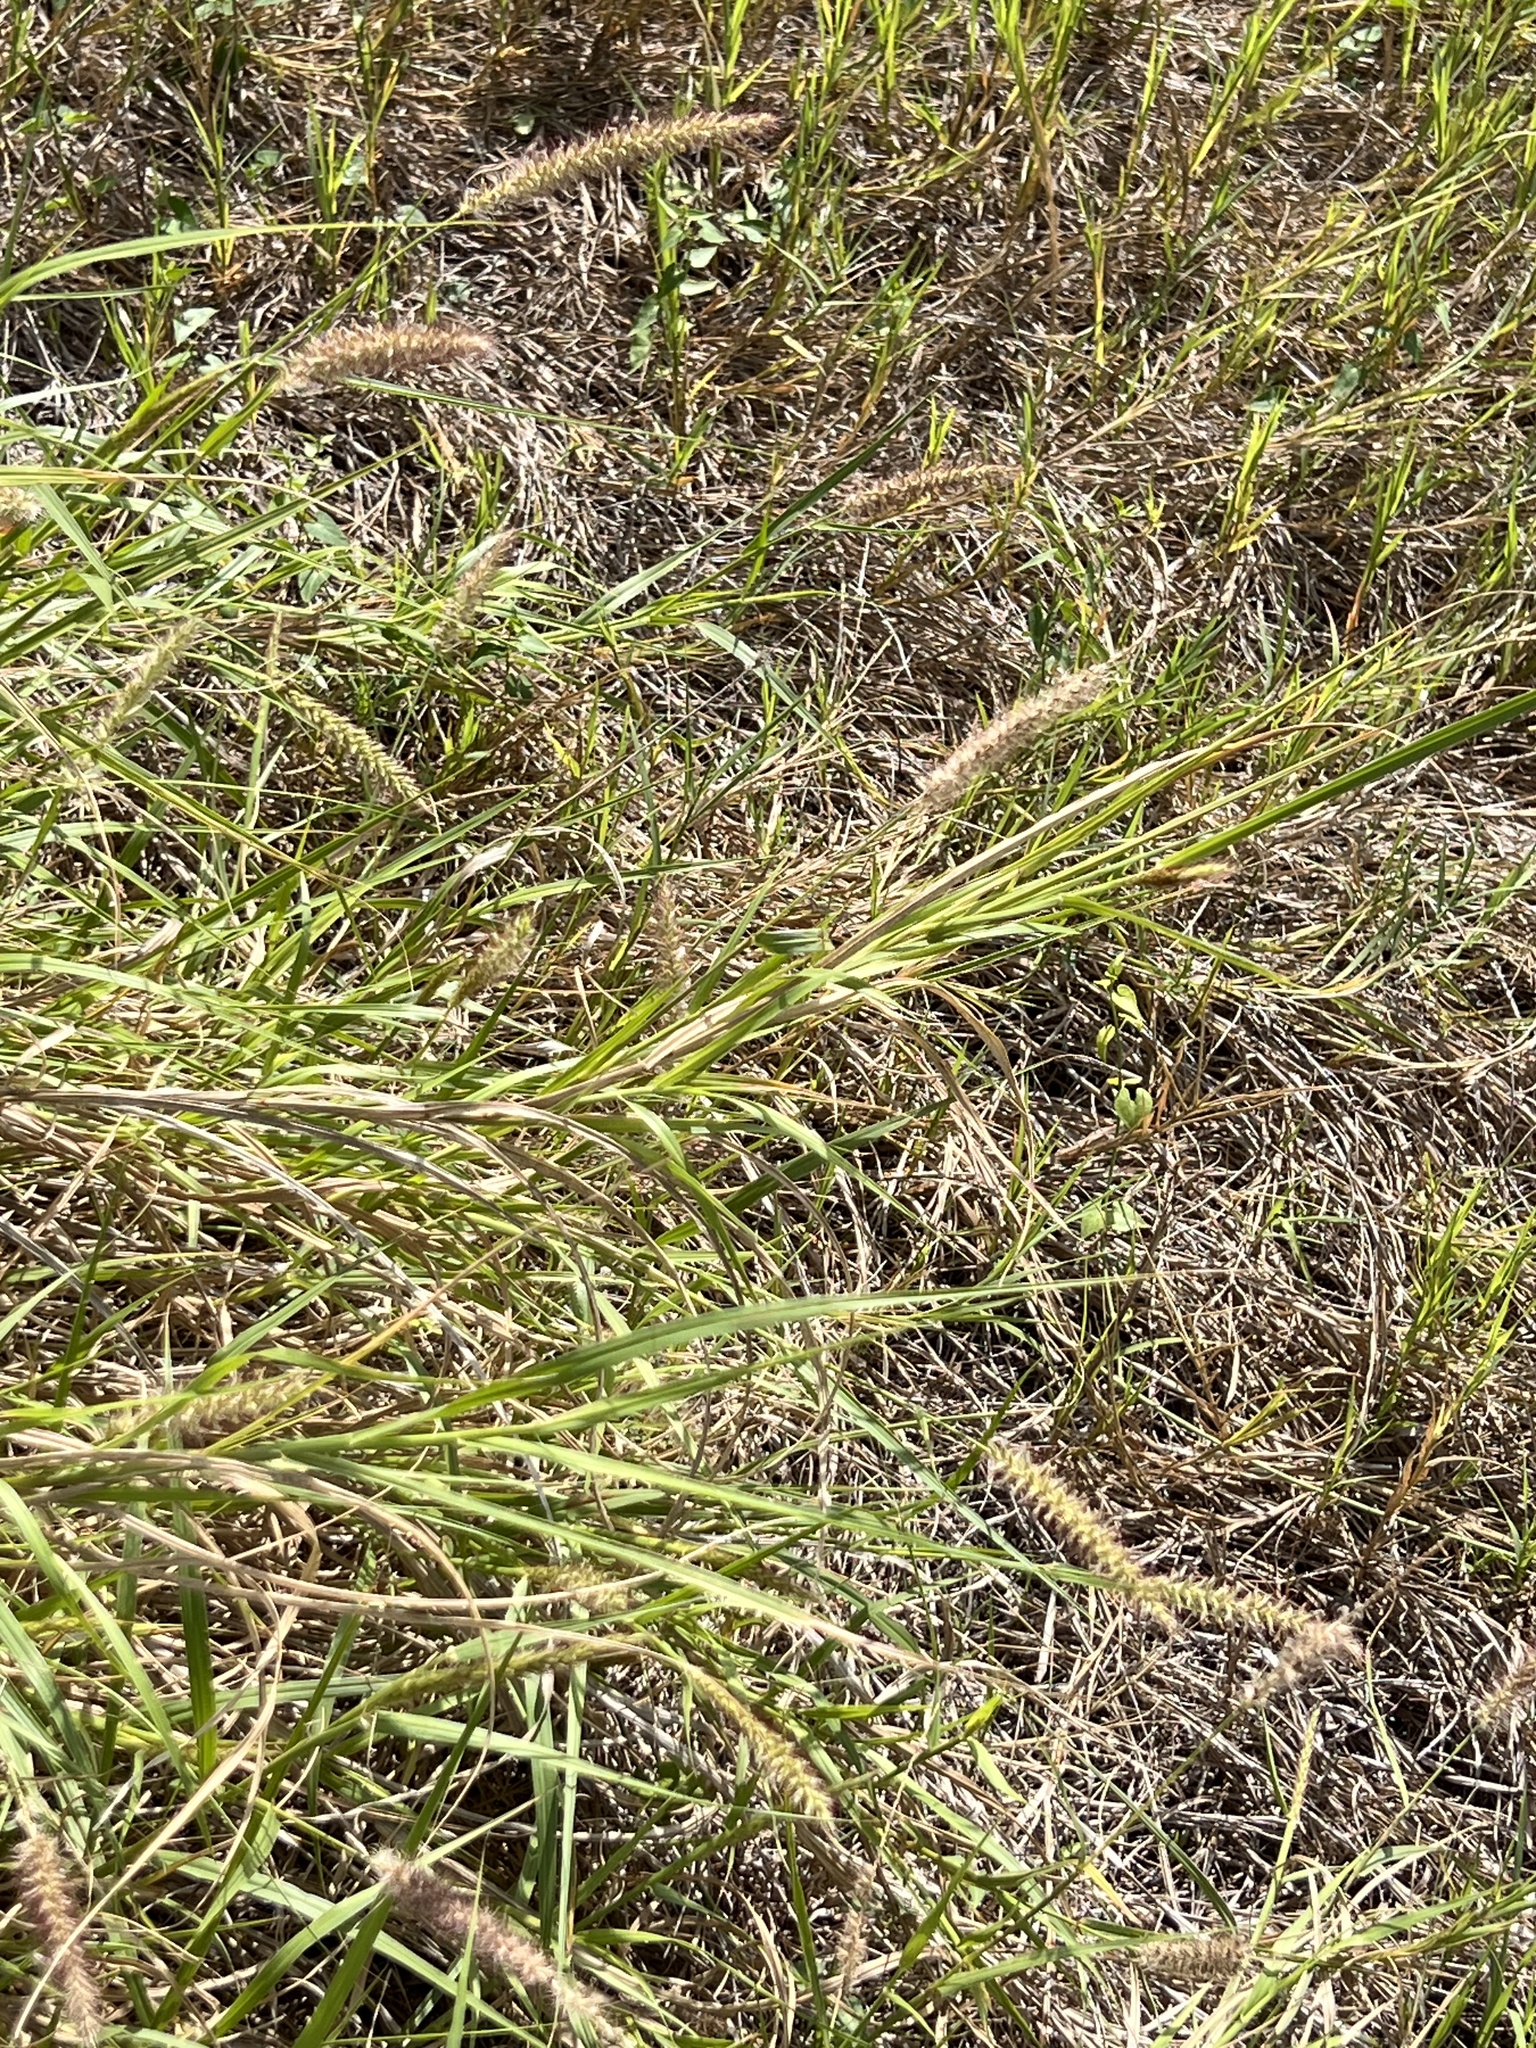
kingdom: Plantae
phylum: Tracheophyta
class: Liliopsida
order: Poales
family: Poaceae
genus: Cenchrus
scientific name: Cenchrus ciliaris
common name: Buffelgrass
